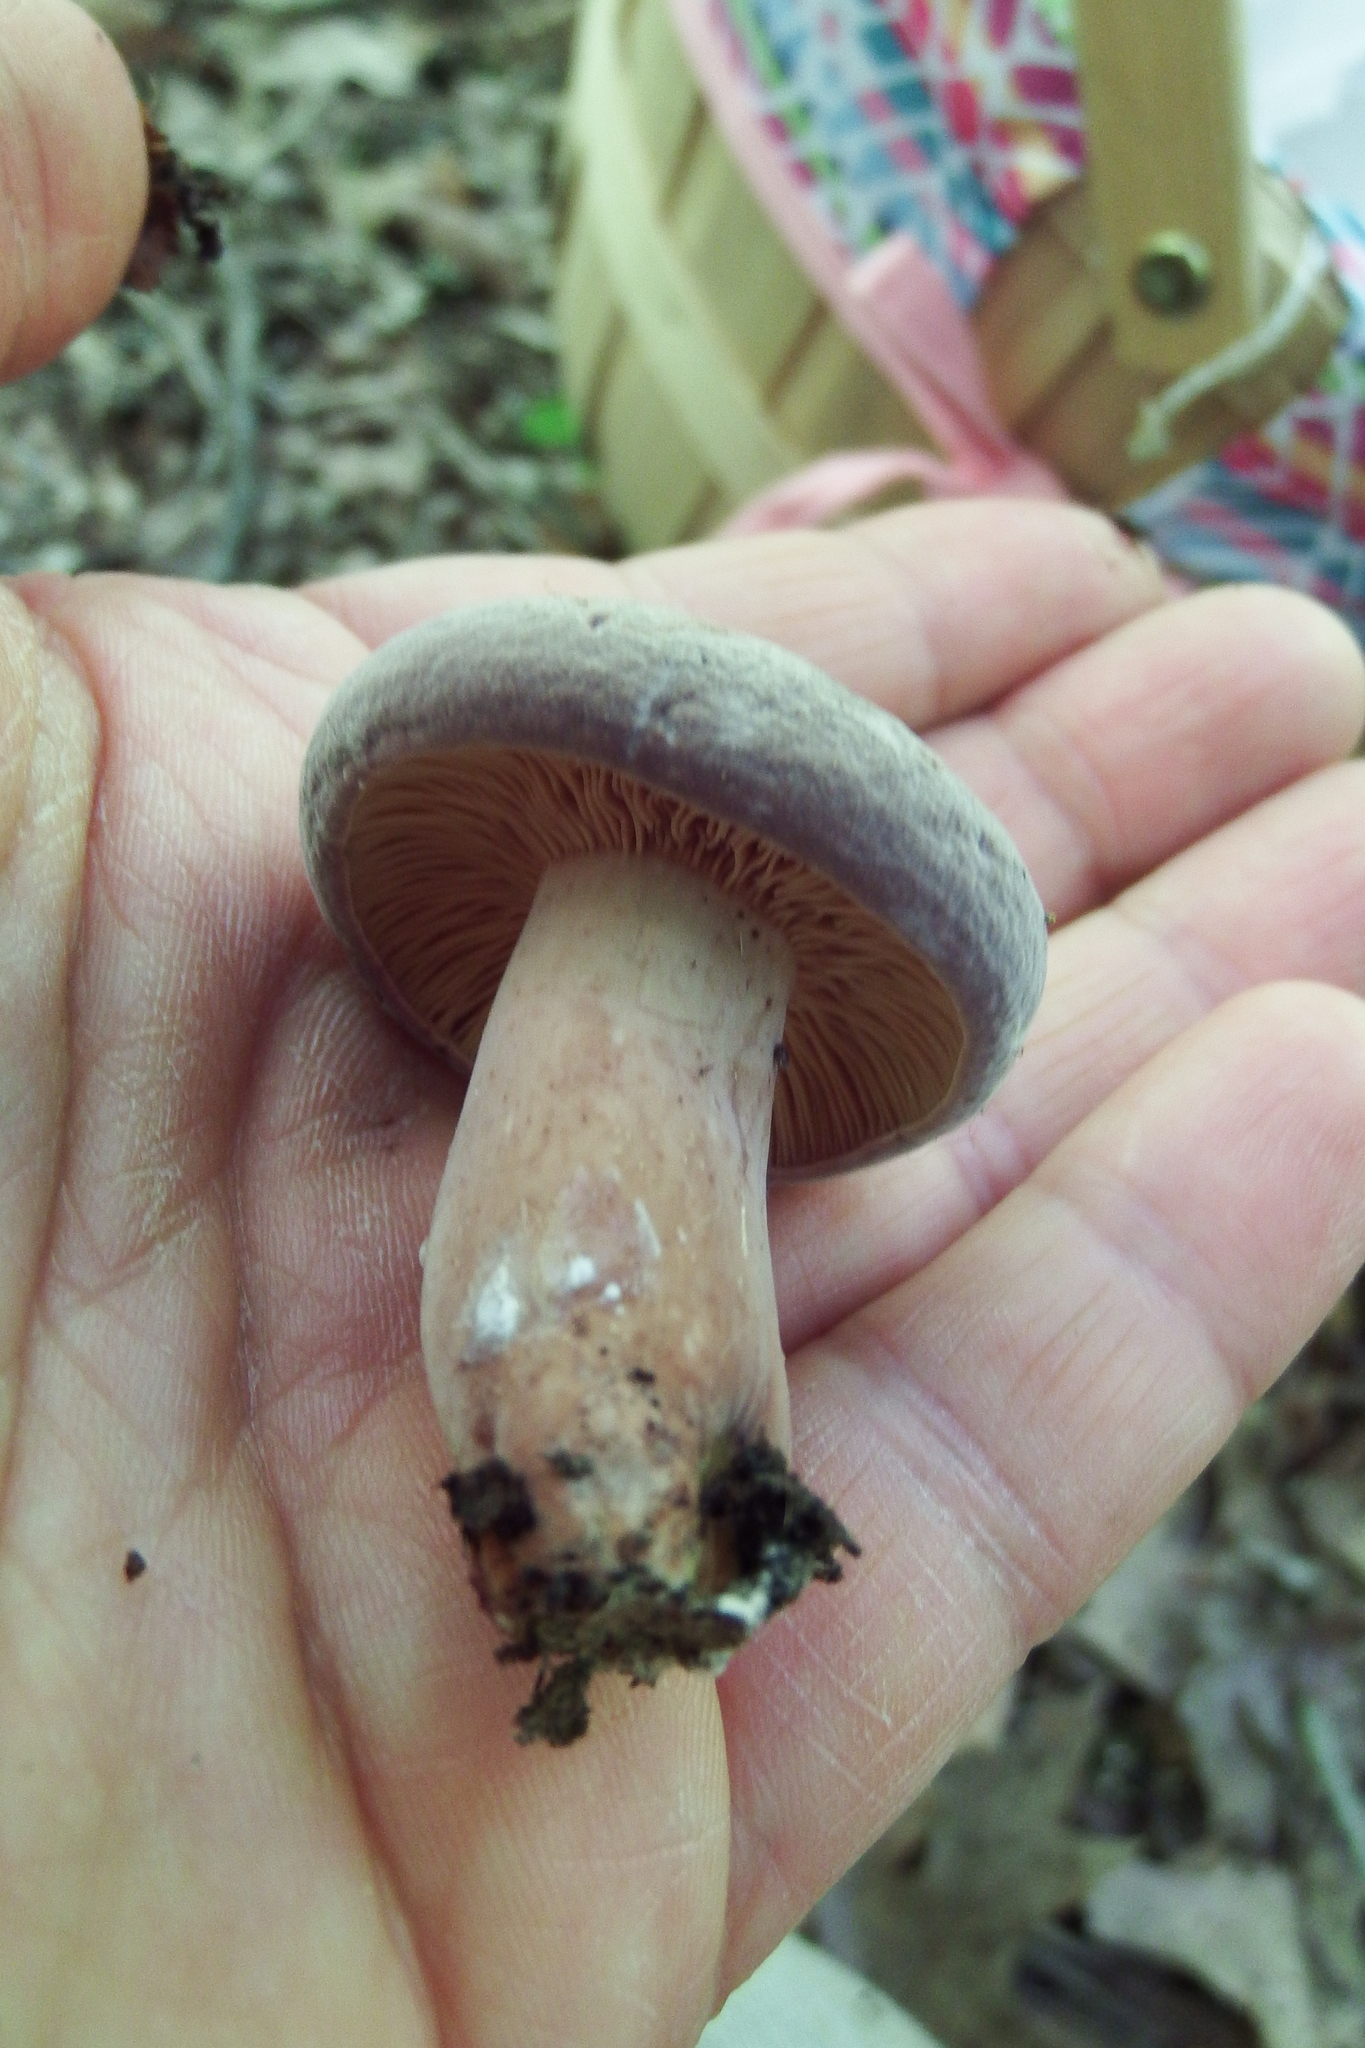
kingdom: Fungi
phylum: Basidiomycota
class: Agaricomycetes
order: Russulales
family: Russulaceae
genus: Lactarius
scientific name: Lactarius corrugis
